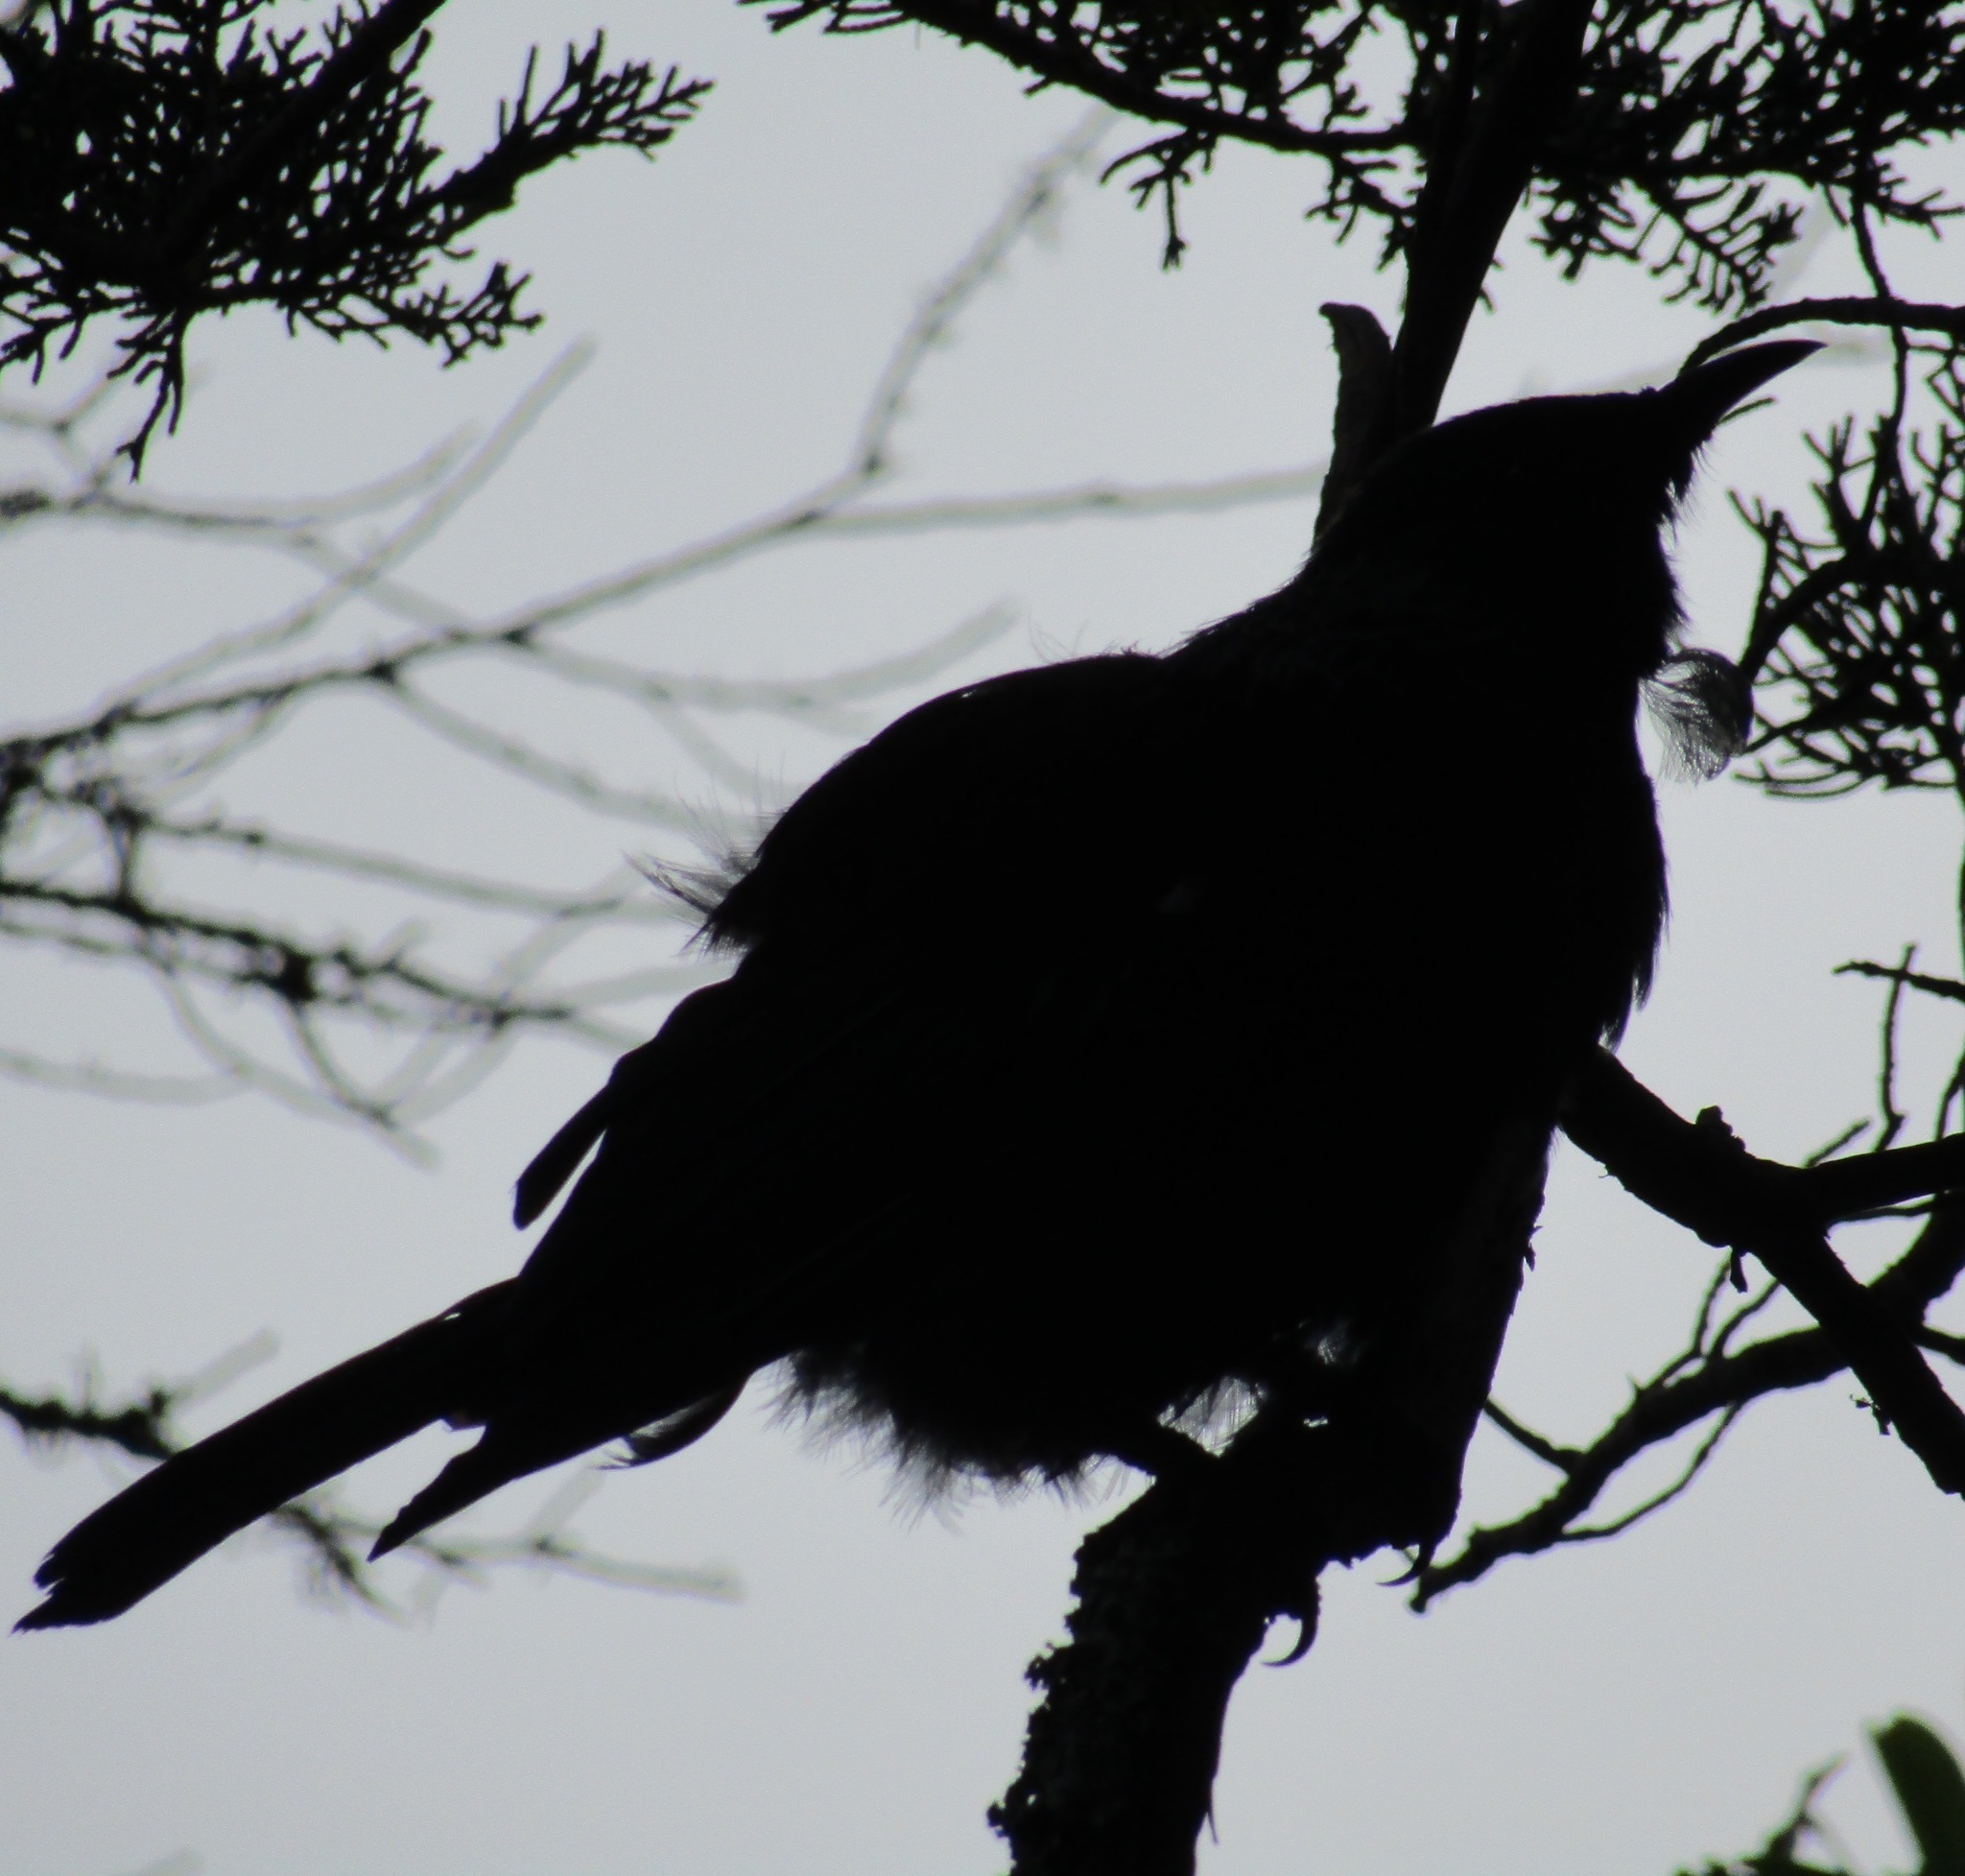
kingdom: Animalia
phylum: Chordata
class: Aves
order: Passeriformes
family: Meliphagidae
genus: Prosthemadera
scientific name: Prosthemadera novaeseelandiae
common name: Tui
